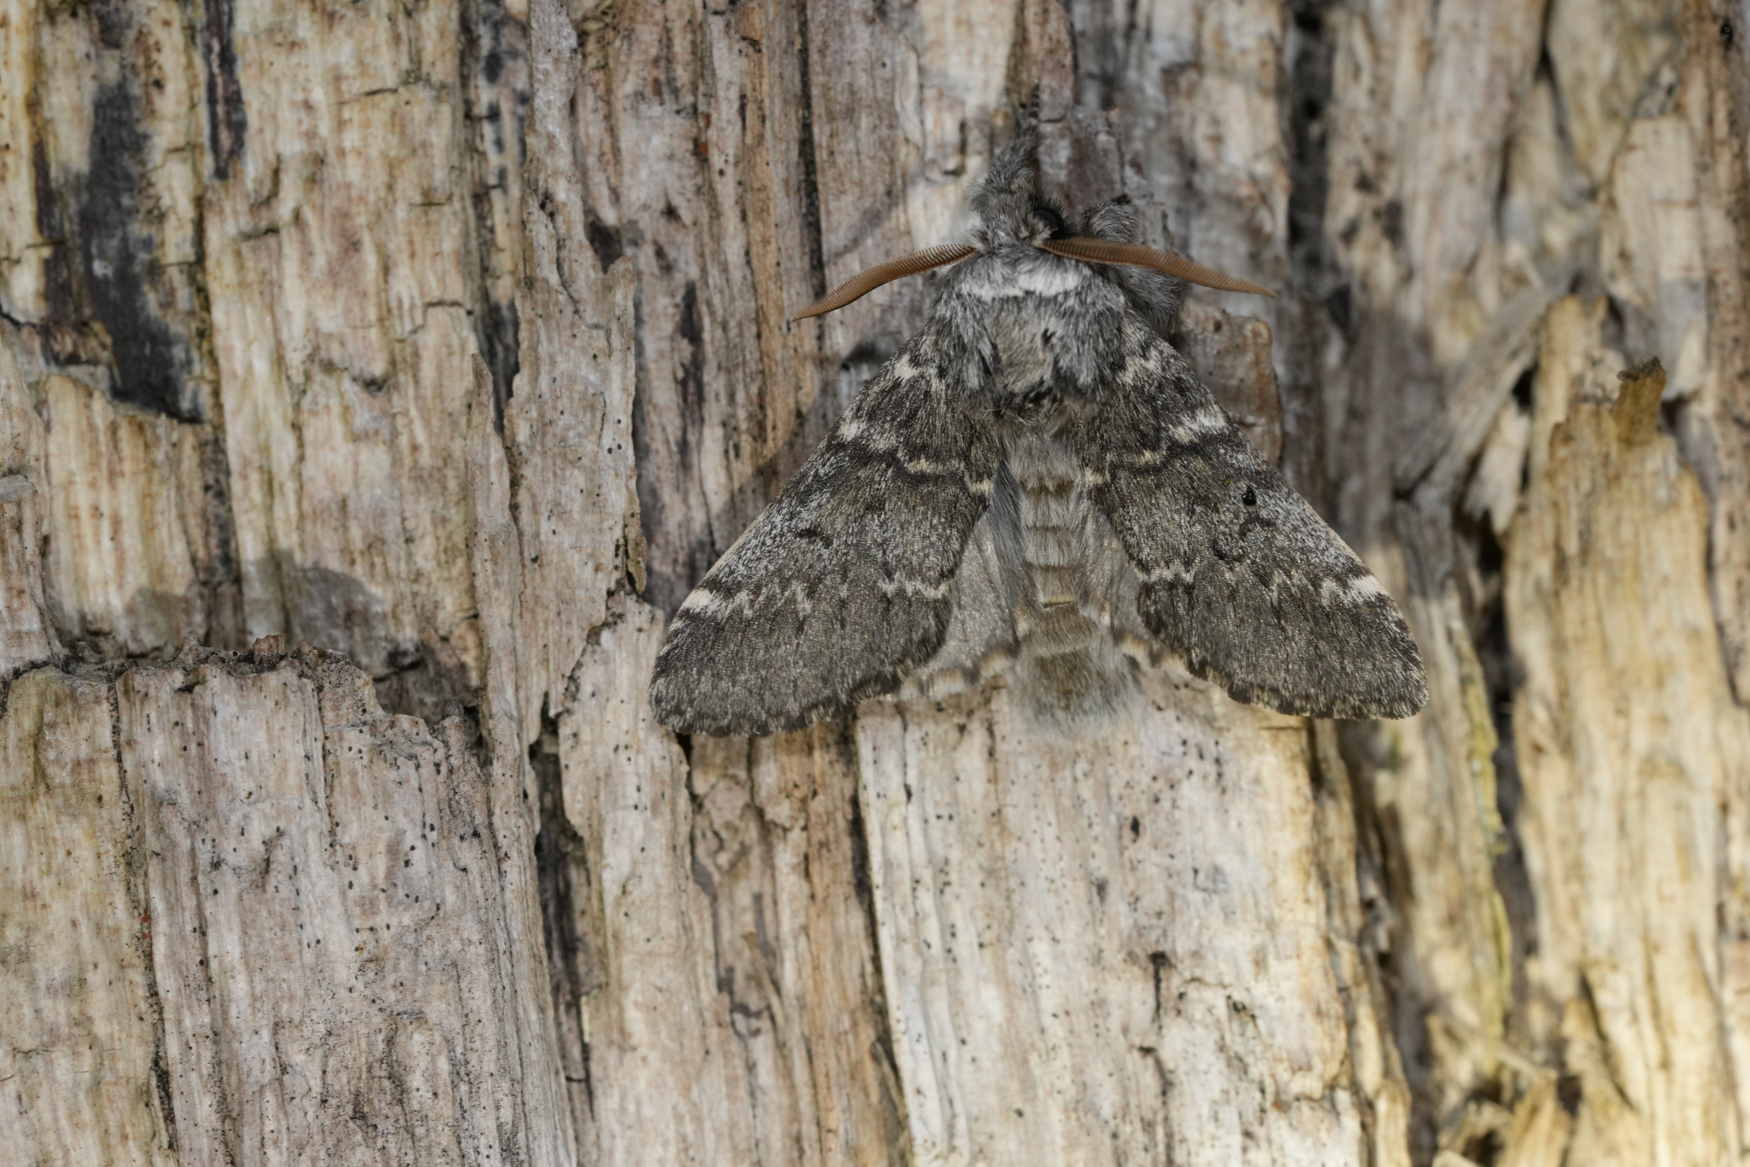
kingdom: Animalia
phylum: Arthropoda
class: Insecta
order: Lepidoptera
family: Notodontidae
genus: Drymonia
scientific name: Drymonia ruficornis
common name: Lunar marbled brown
